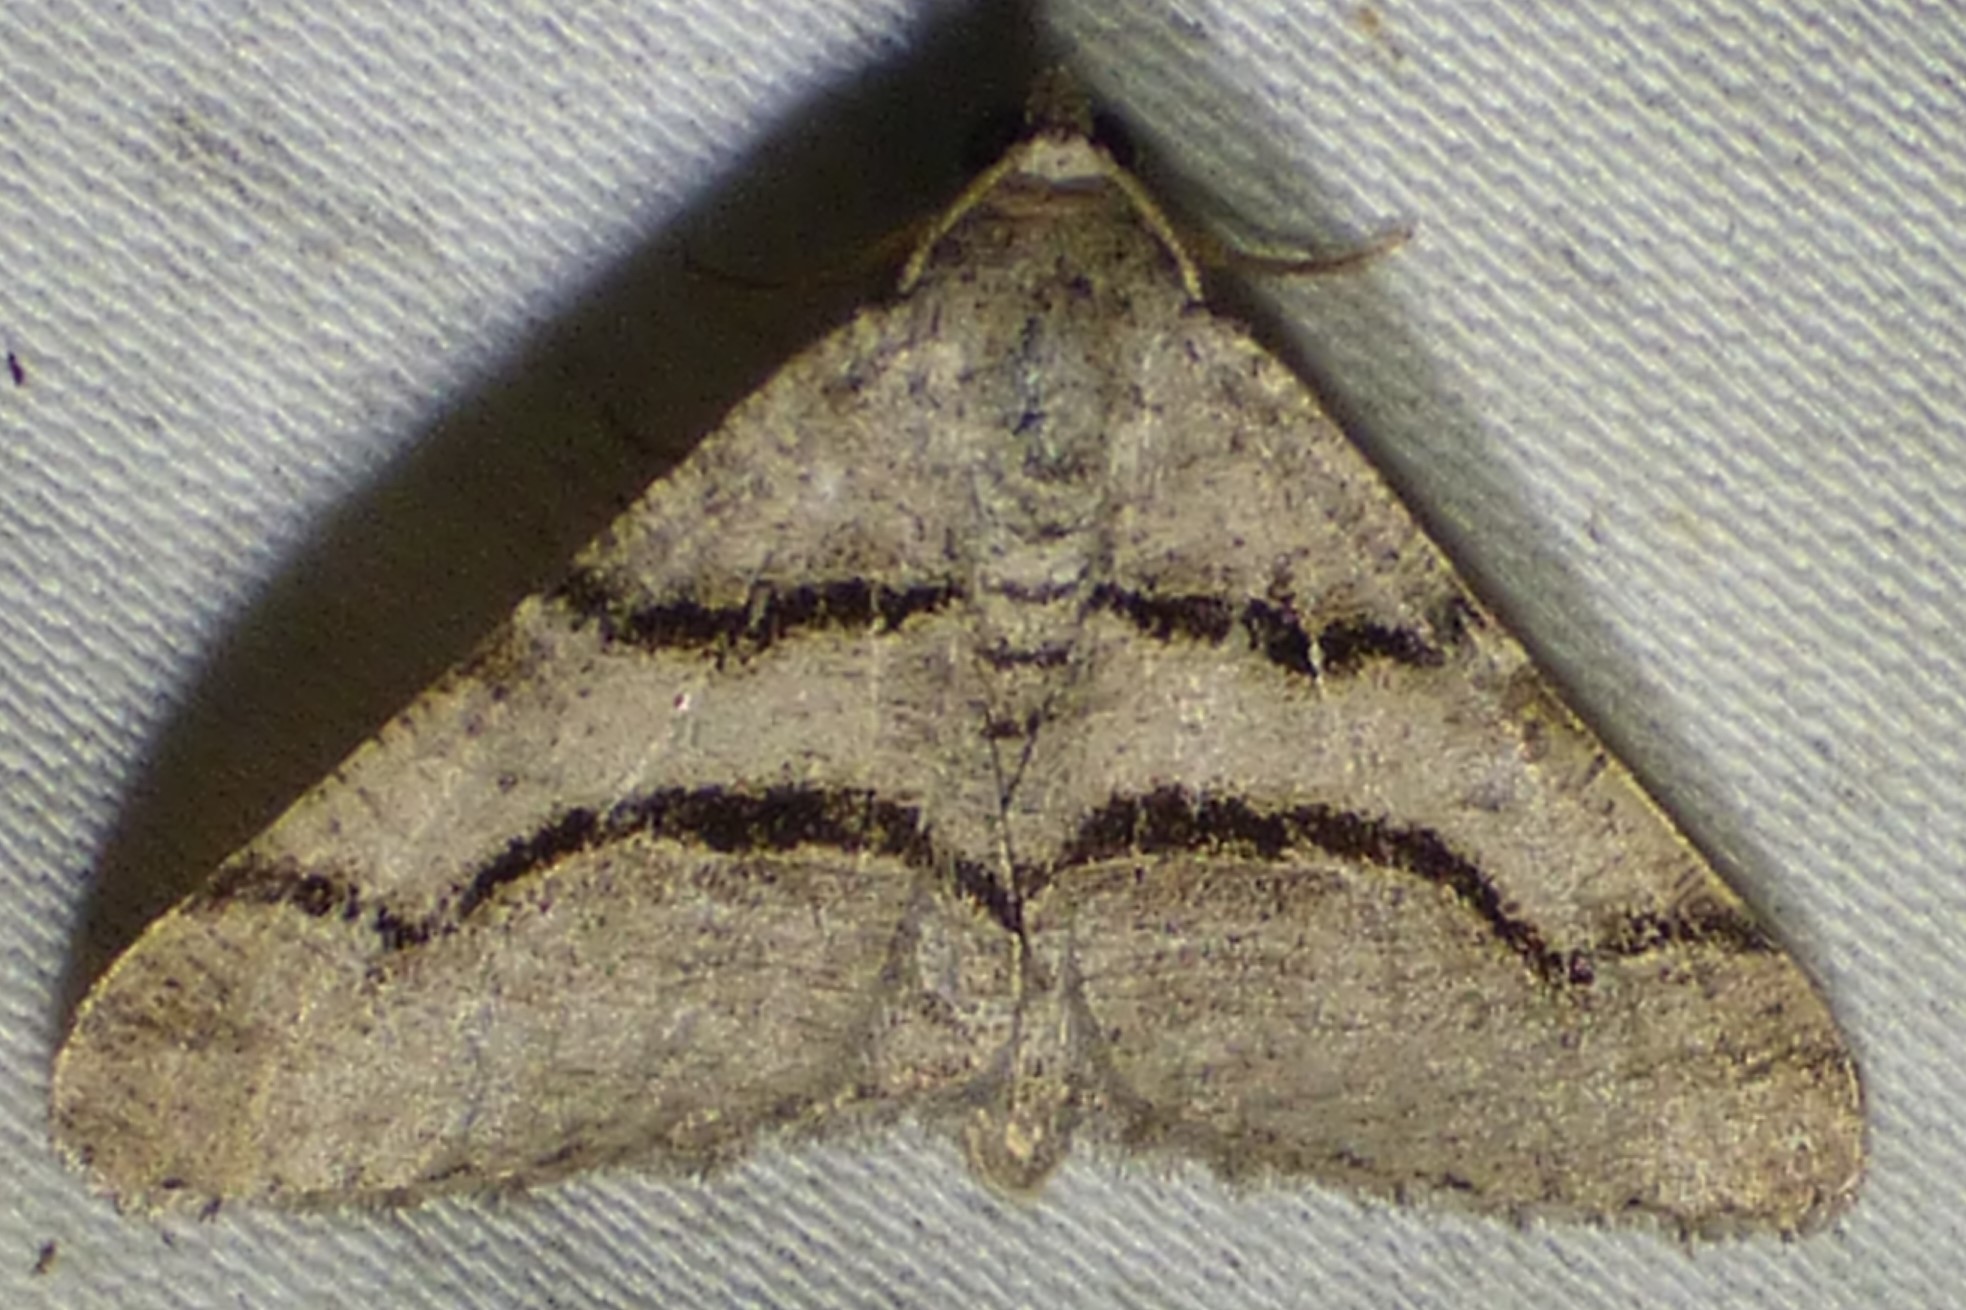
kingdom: Animalia
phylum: Arthropoda
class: Insecta
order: Lepidoptera
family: Geometridae
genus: Digrammia
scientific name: Digrammia continuata
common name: Curve-lined angle
